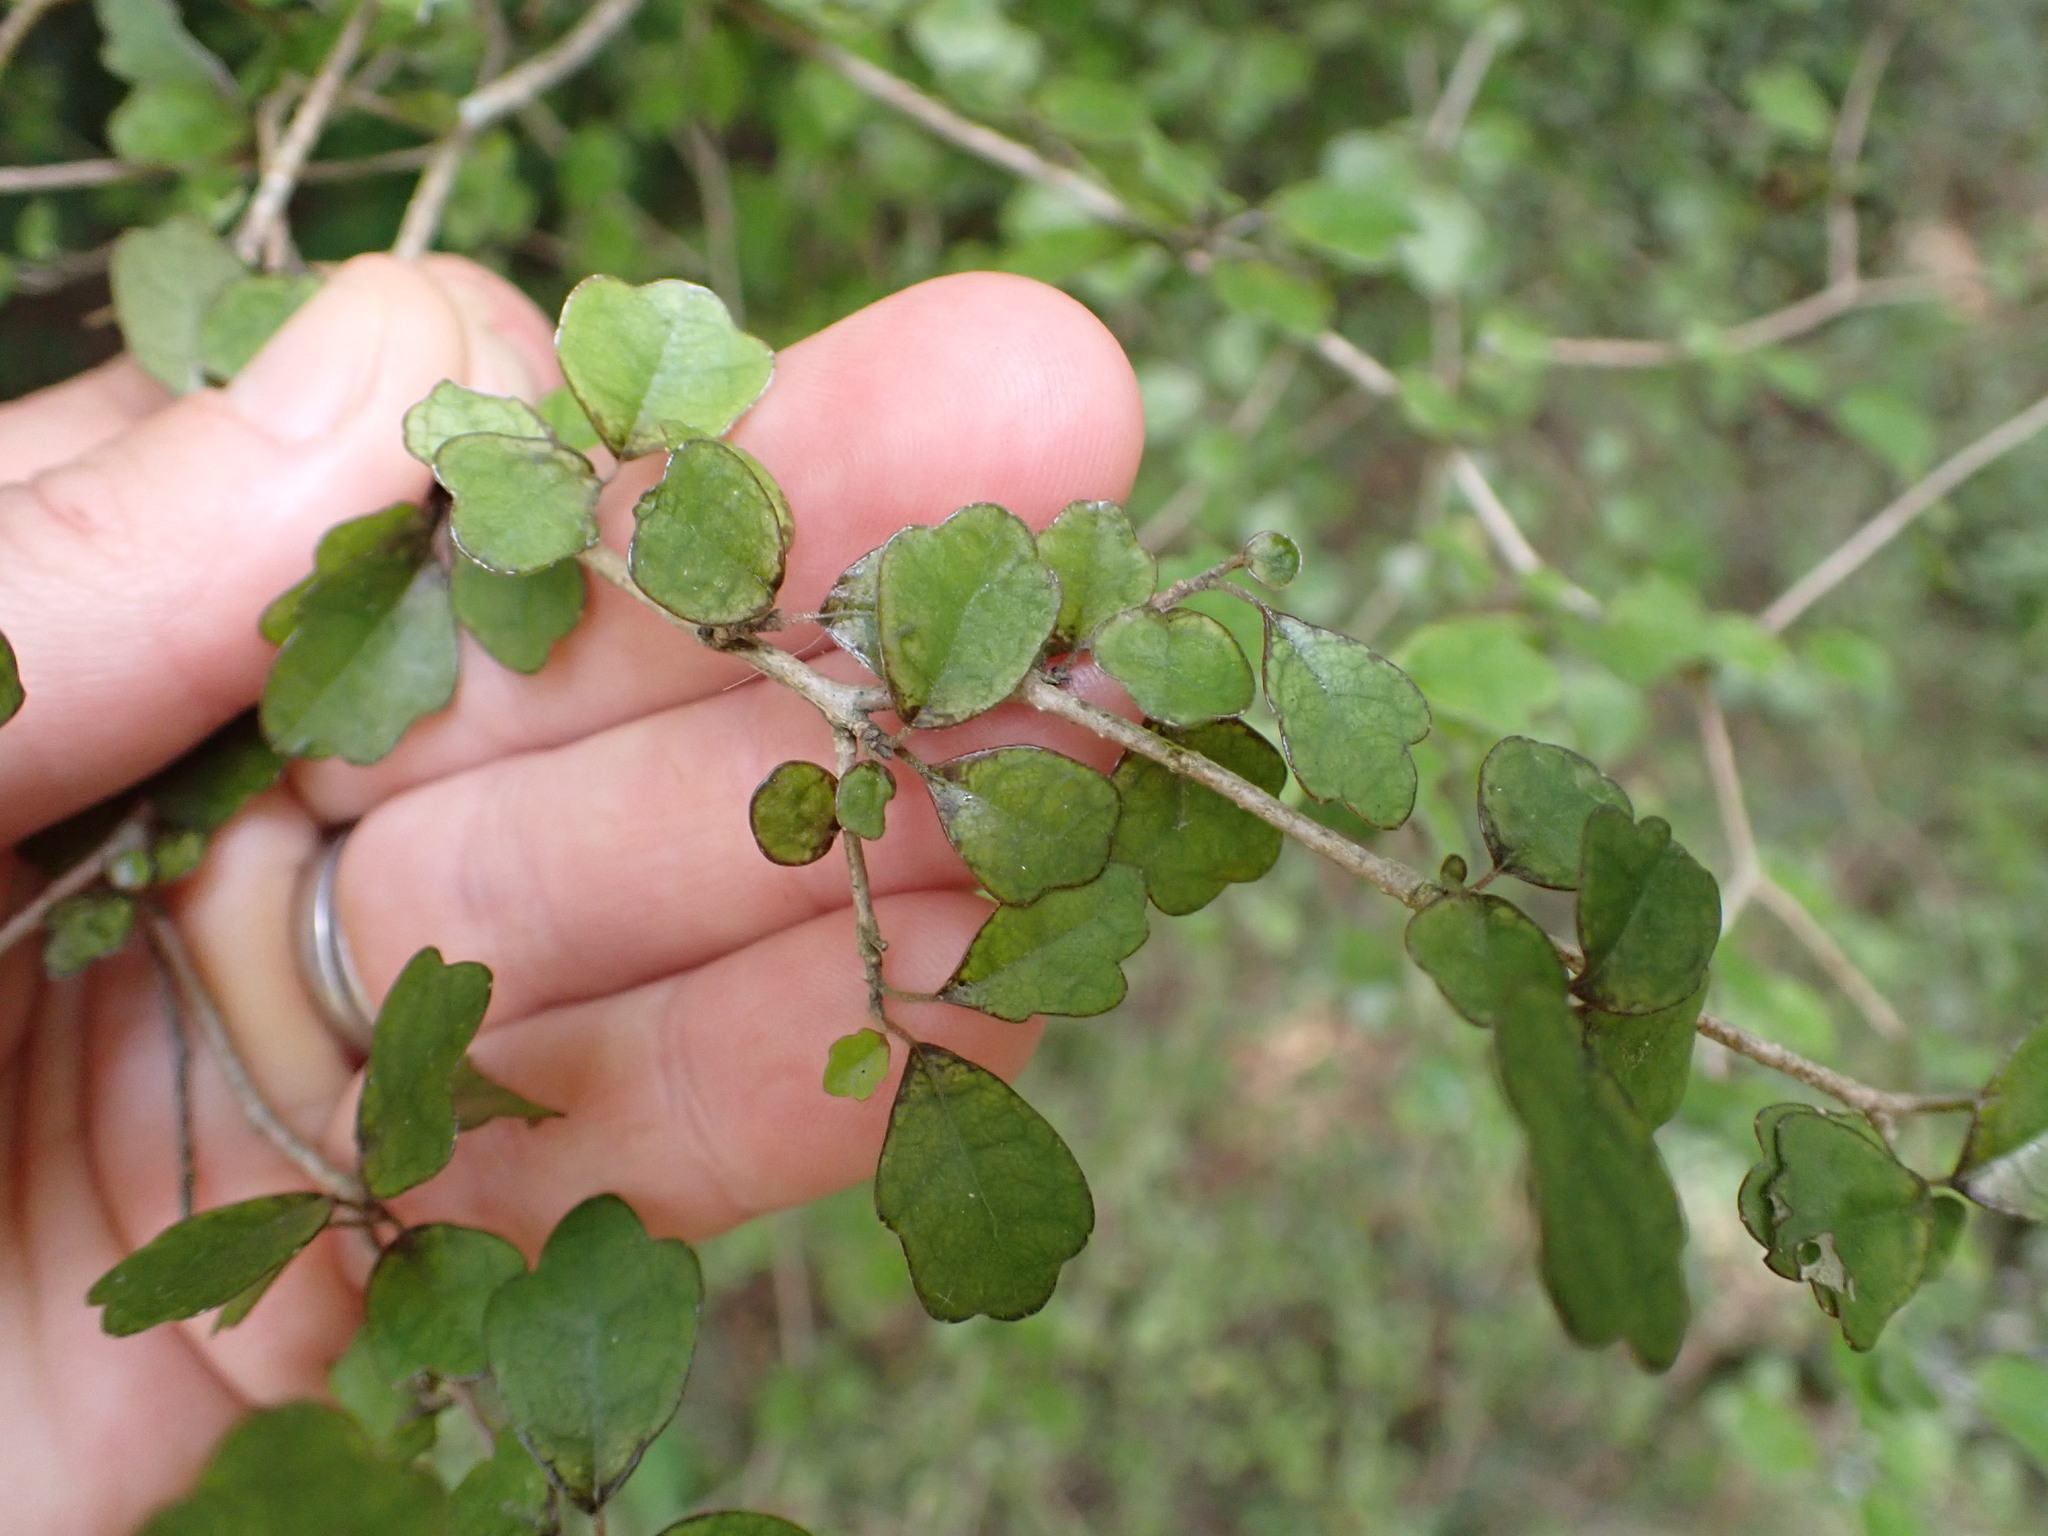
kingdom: Plantae
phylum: Tracheophyta
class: Magnoliopsida
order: Apiales
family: Pennantiaceae
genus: Pennantia
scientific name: Pennantia corymbosa
